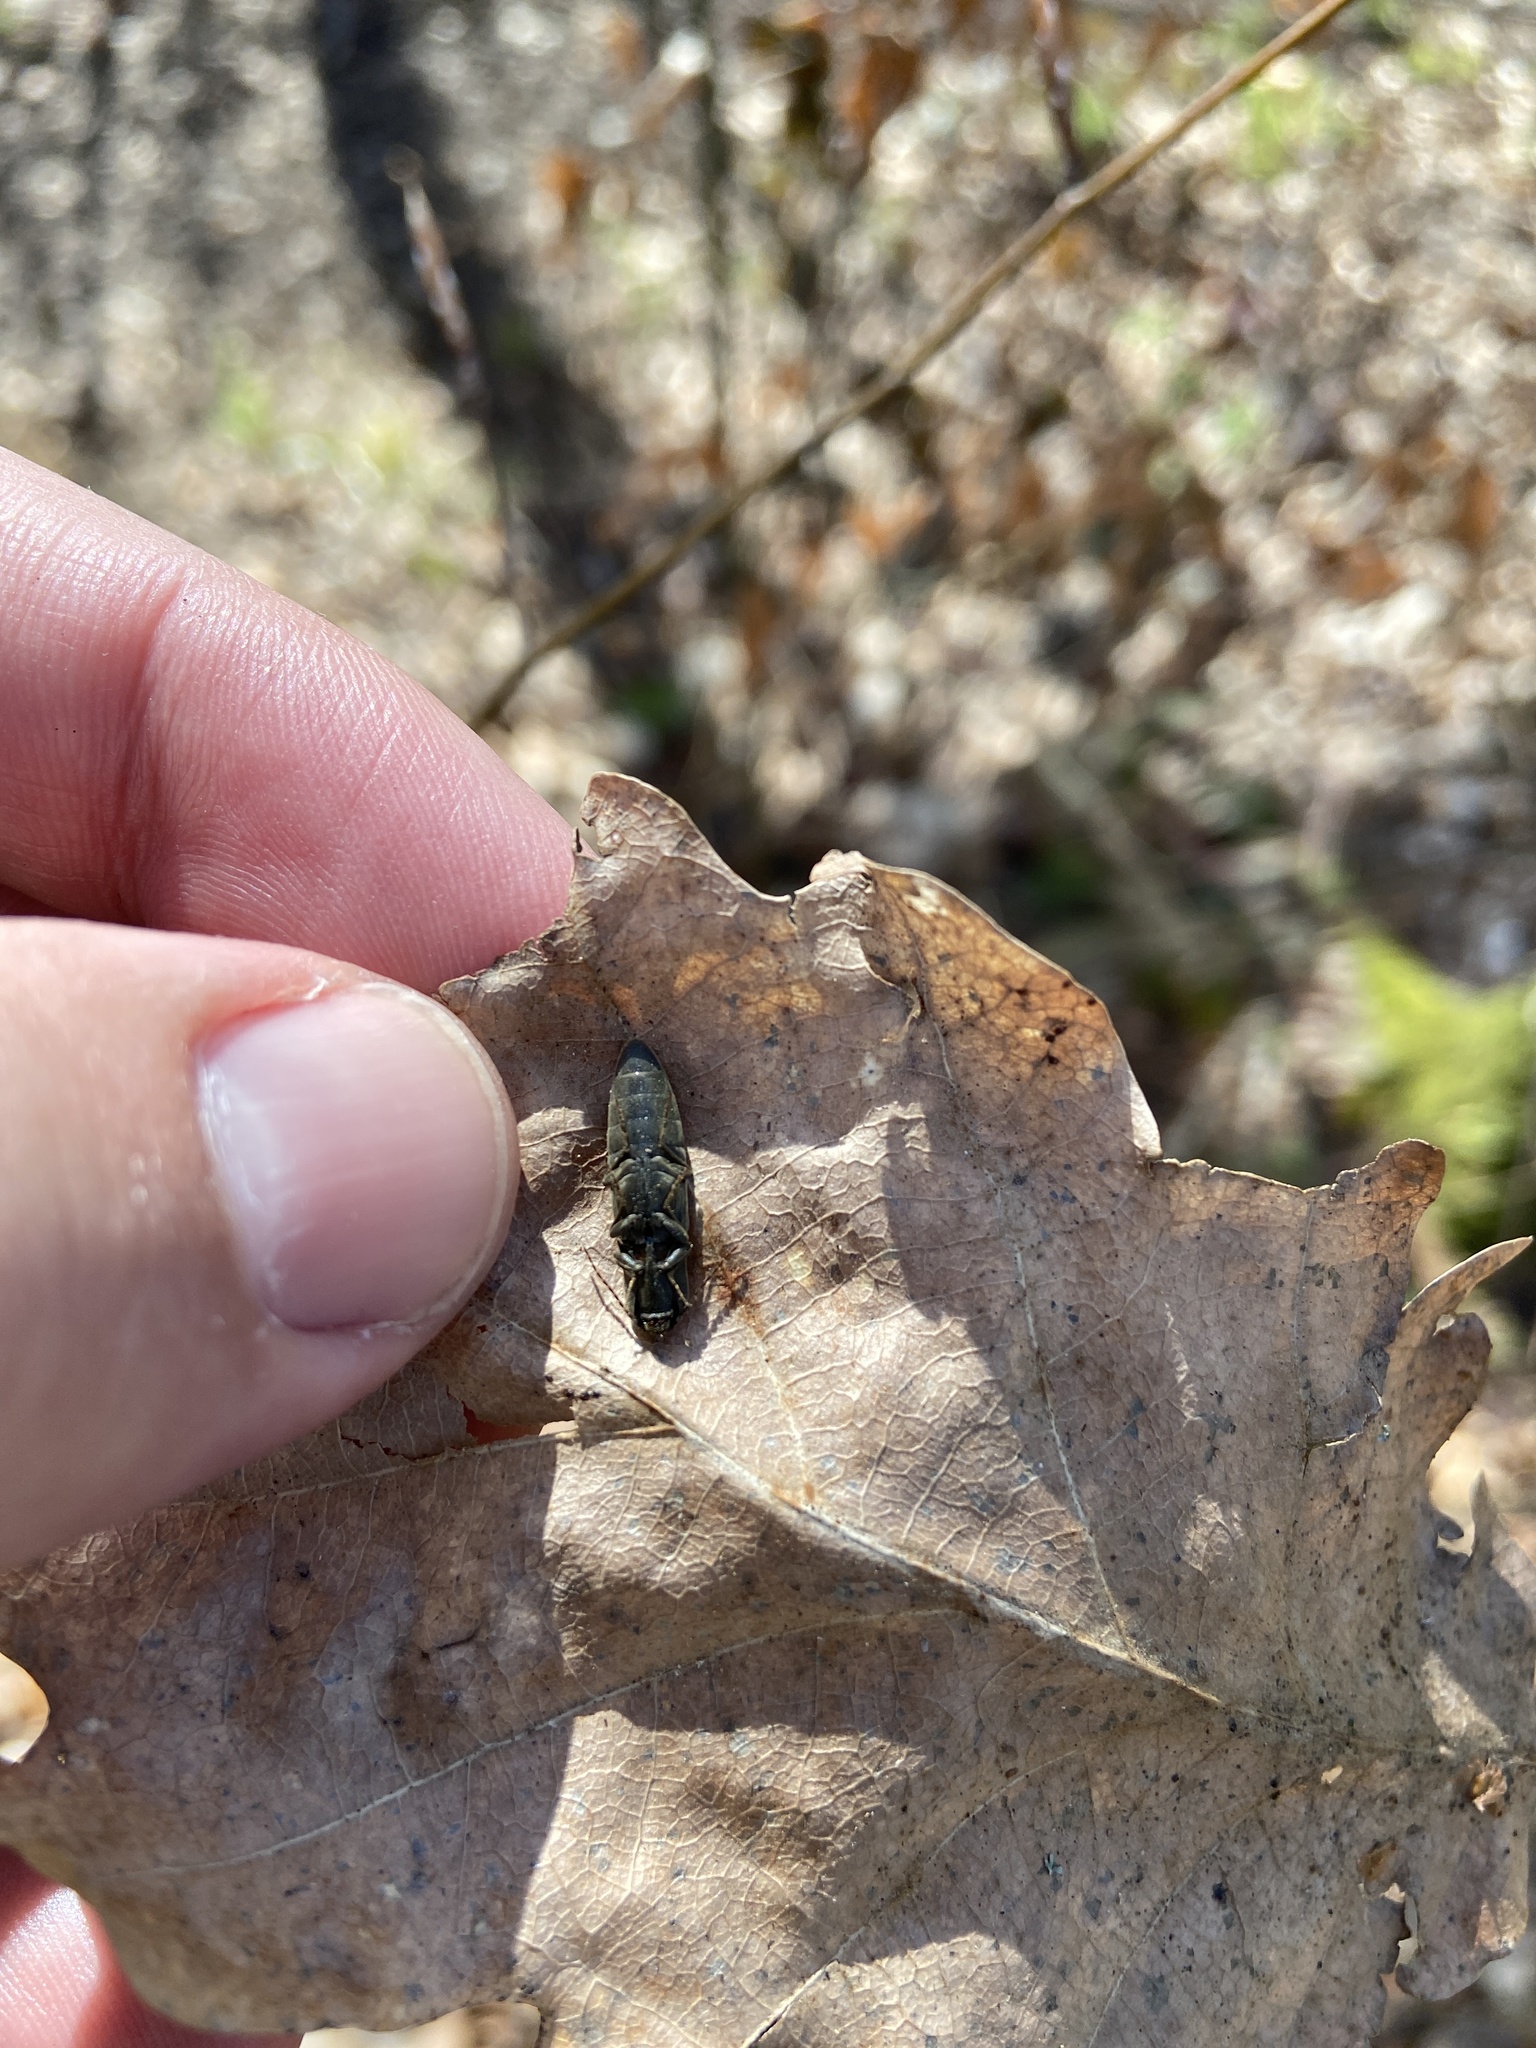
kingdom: Animalia
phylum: Arthropoda
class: Insecta
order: Coleoptera
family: Elateridae
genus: Agriotes
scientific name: Agriotes pilosellus
